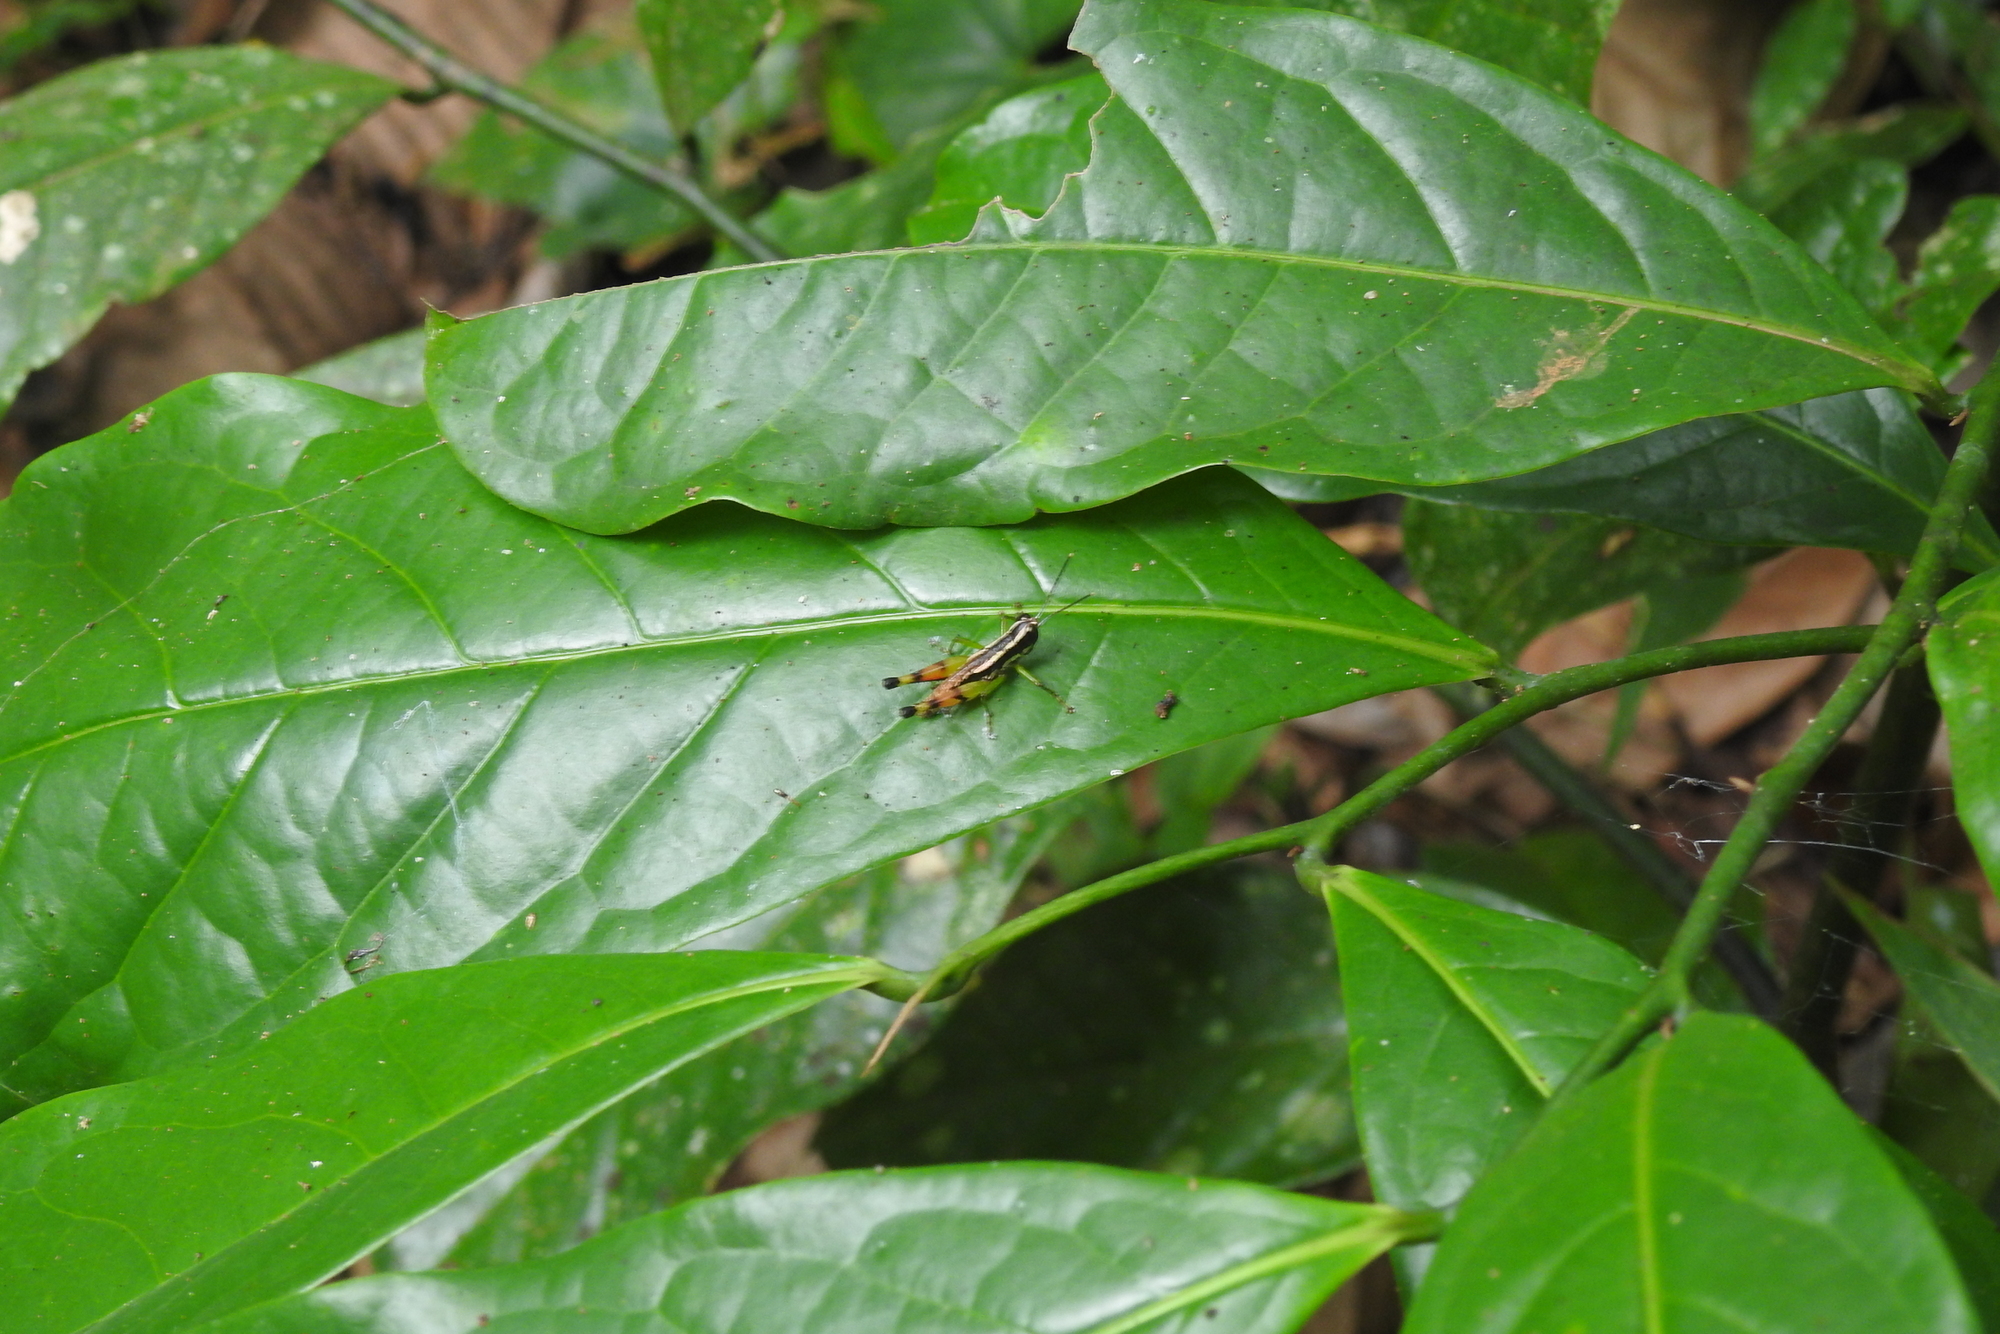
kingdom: Animalia
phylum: Arthropoda
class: Insecta
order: Orthoptera
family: Acrididae
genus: Chitaura
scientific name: Chitaura indica
